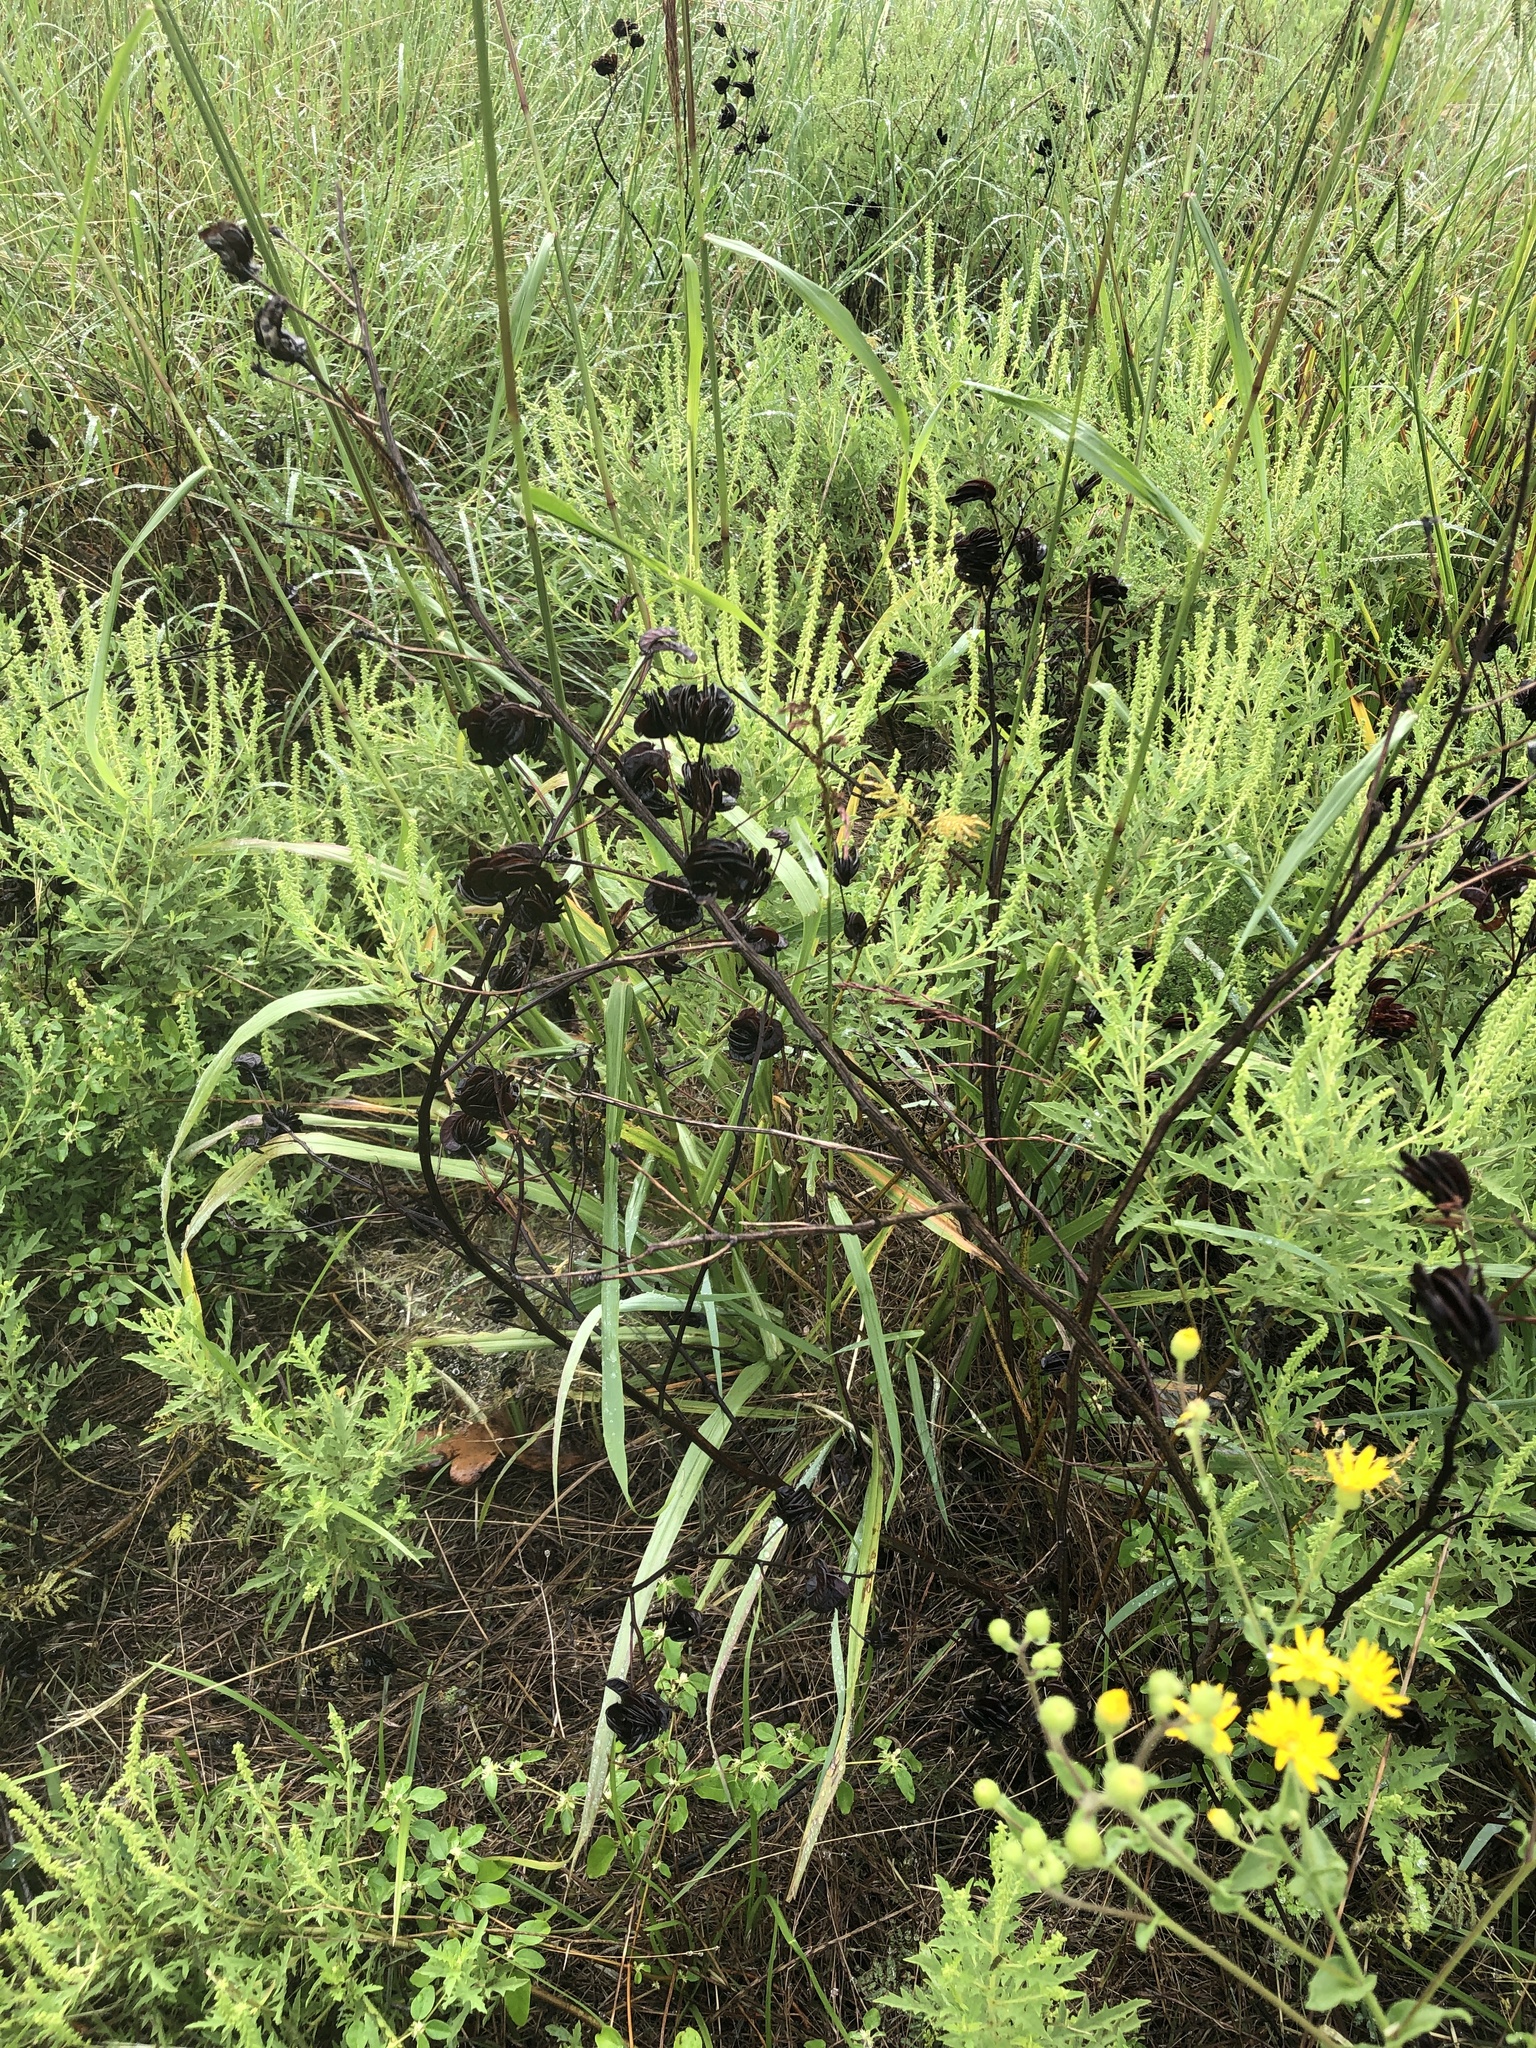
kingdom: Plantae
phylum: Tracheophyta
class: Magnoliopsida
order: Fabales
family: Fabaceae
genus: Desmanthus
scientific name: Desmanthus illinoensis
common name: Illinois bundle-flower
